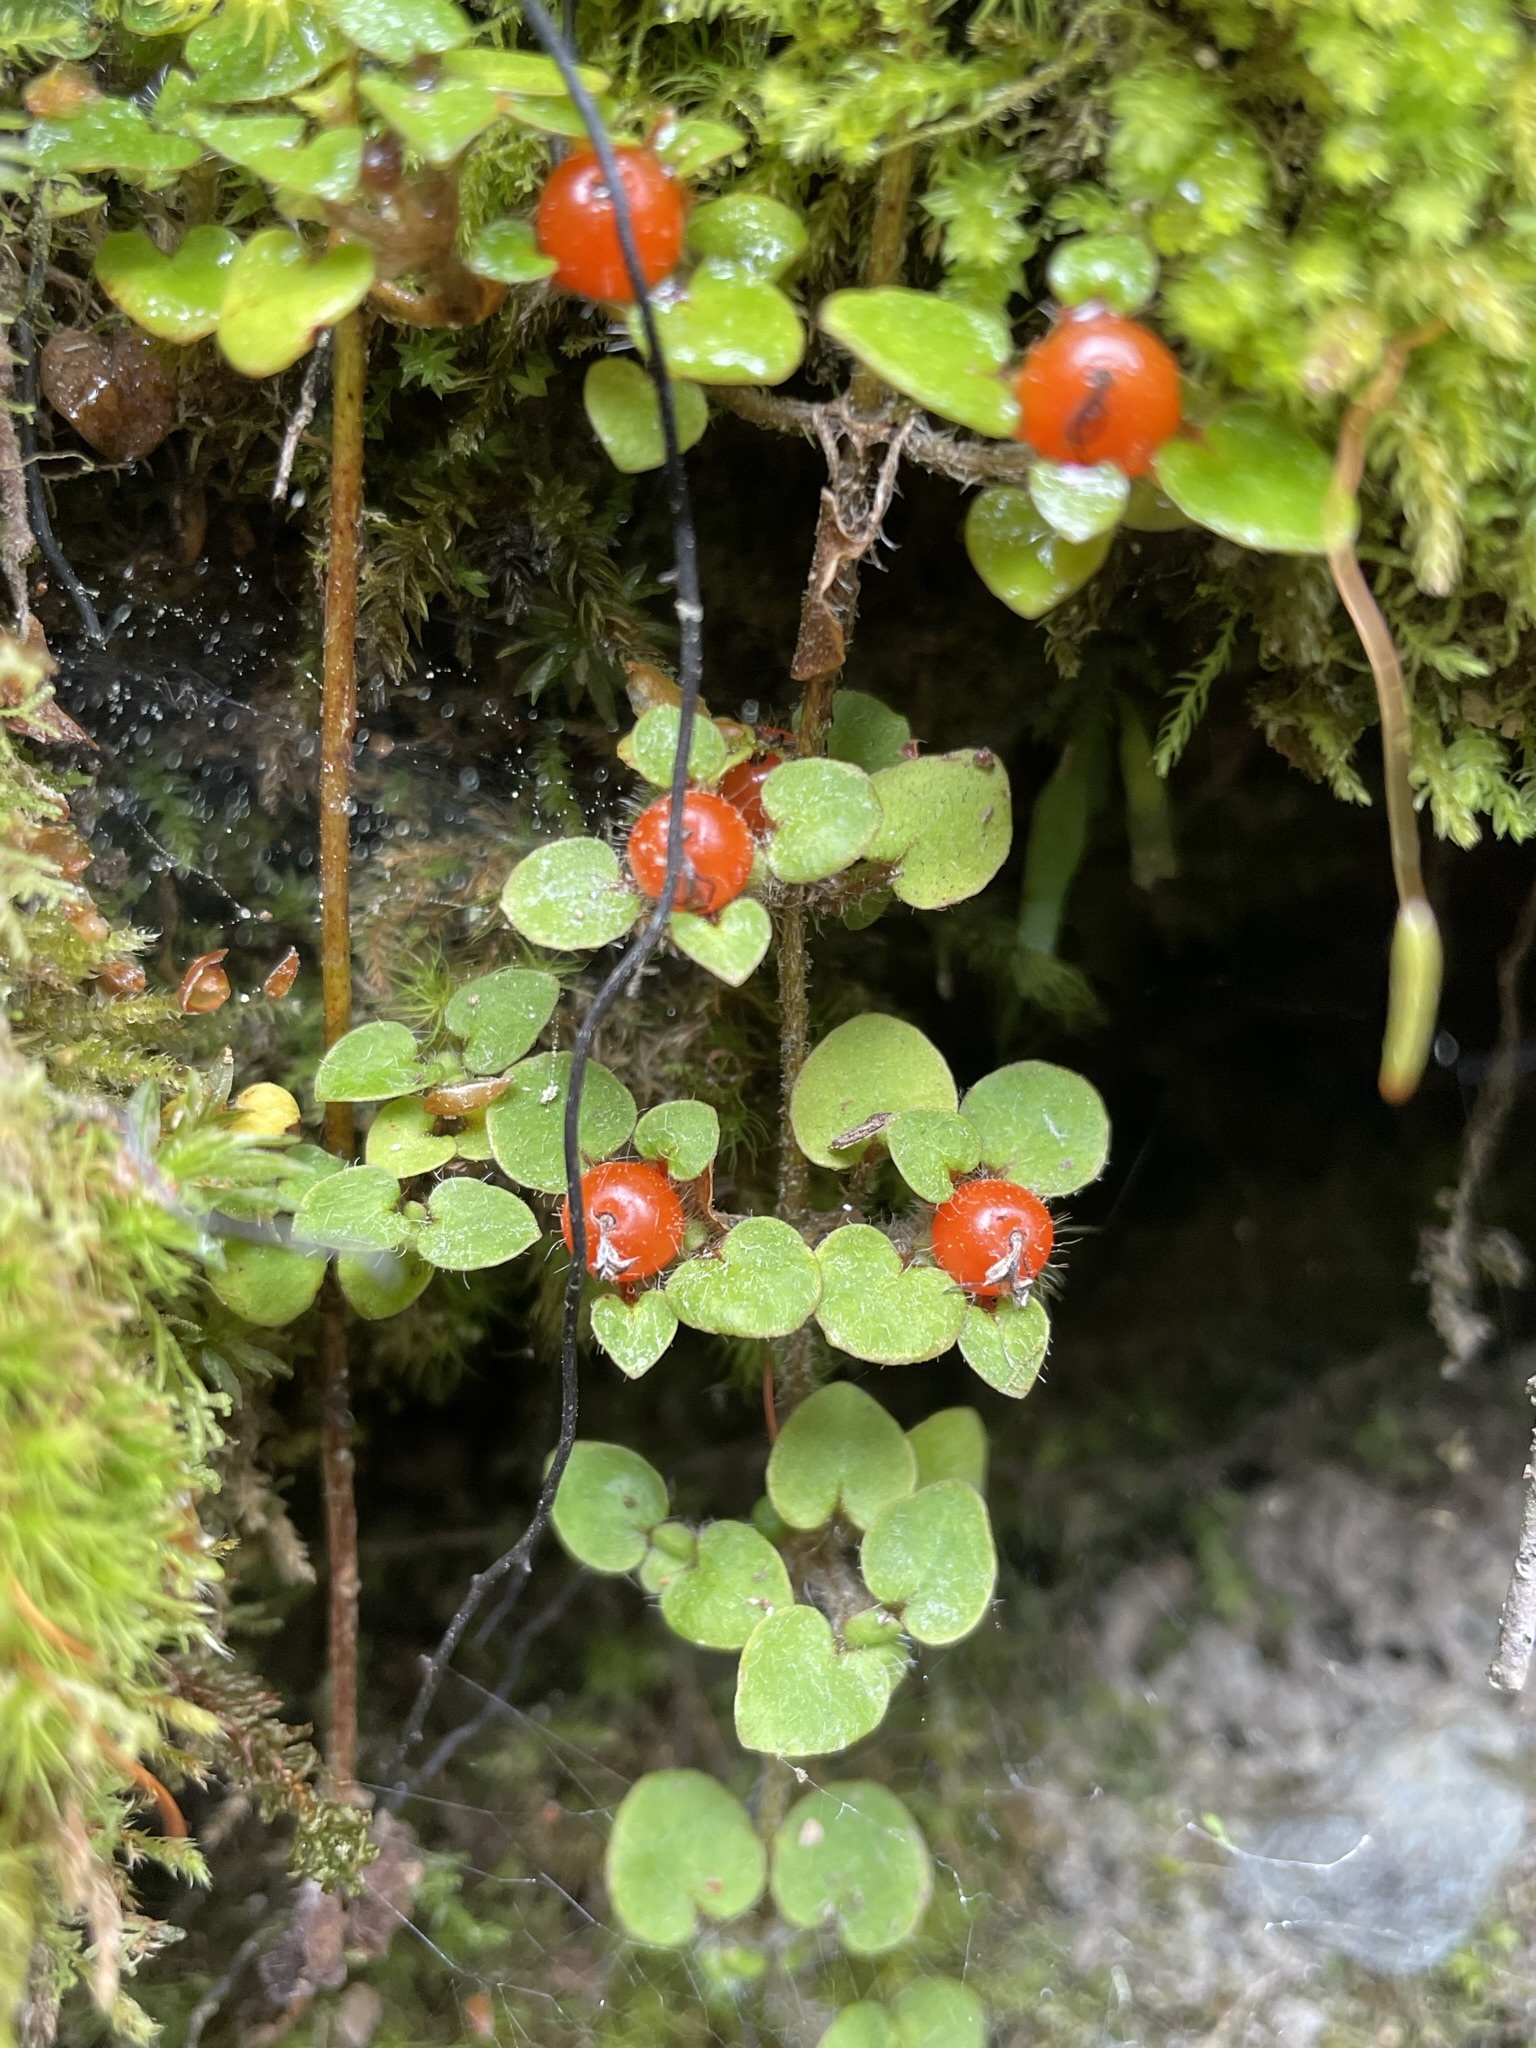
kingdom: Plantae
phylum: Tracheophyta
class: Magnoliopsida
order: Gentianales
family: Rubiaceae
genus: Nertera
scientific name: Nertera villosa
